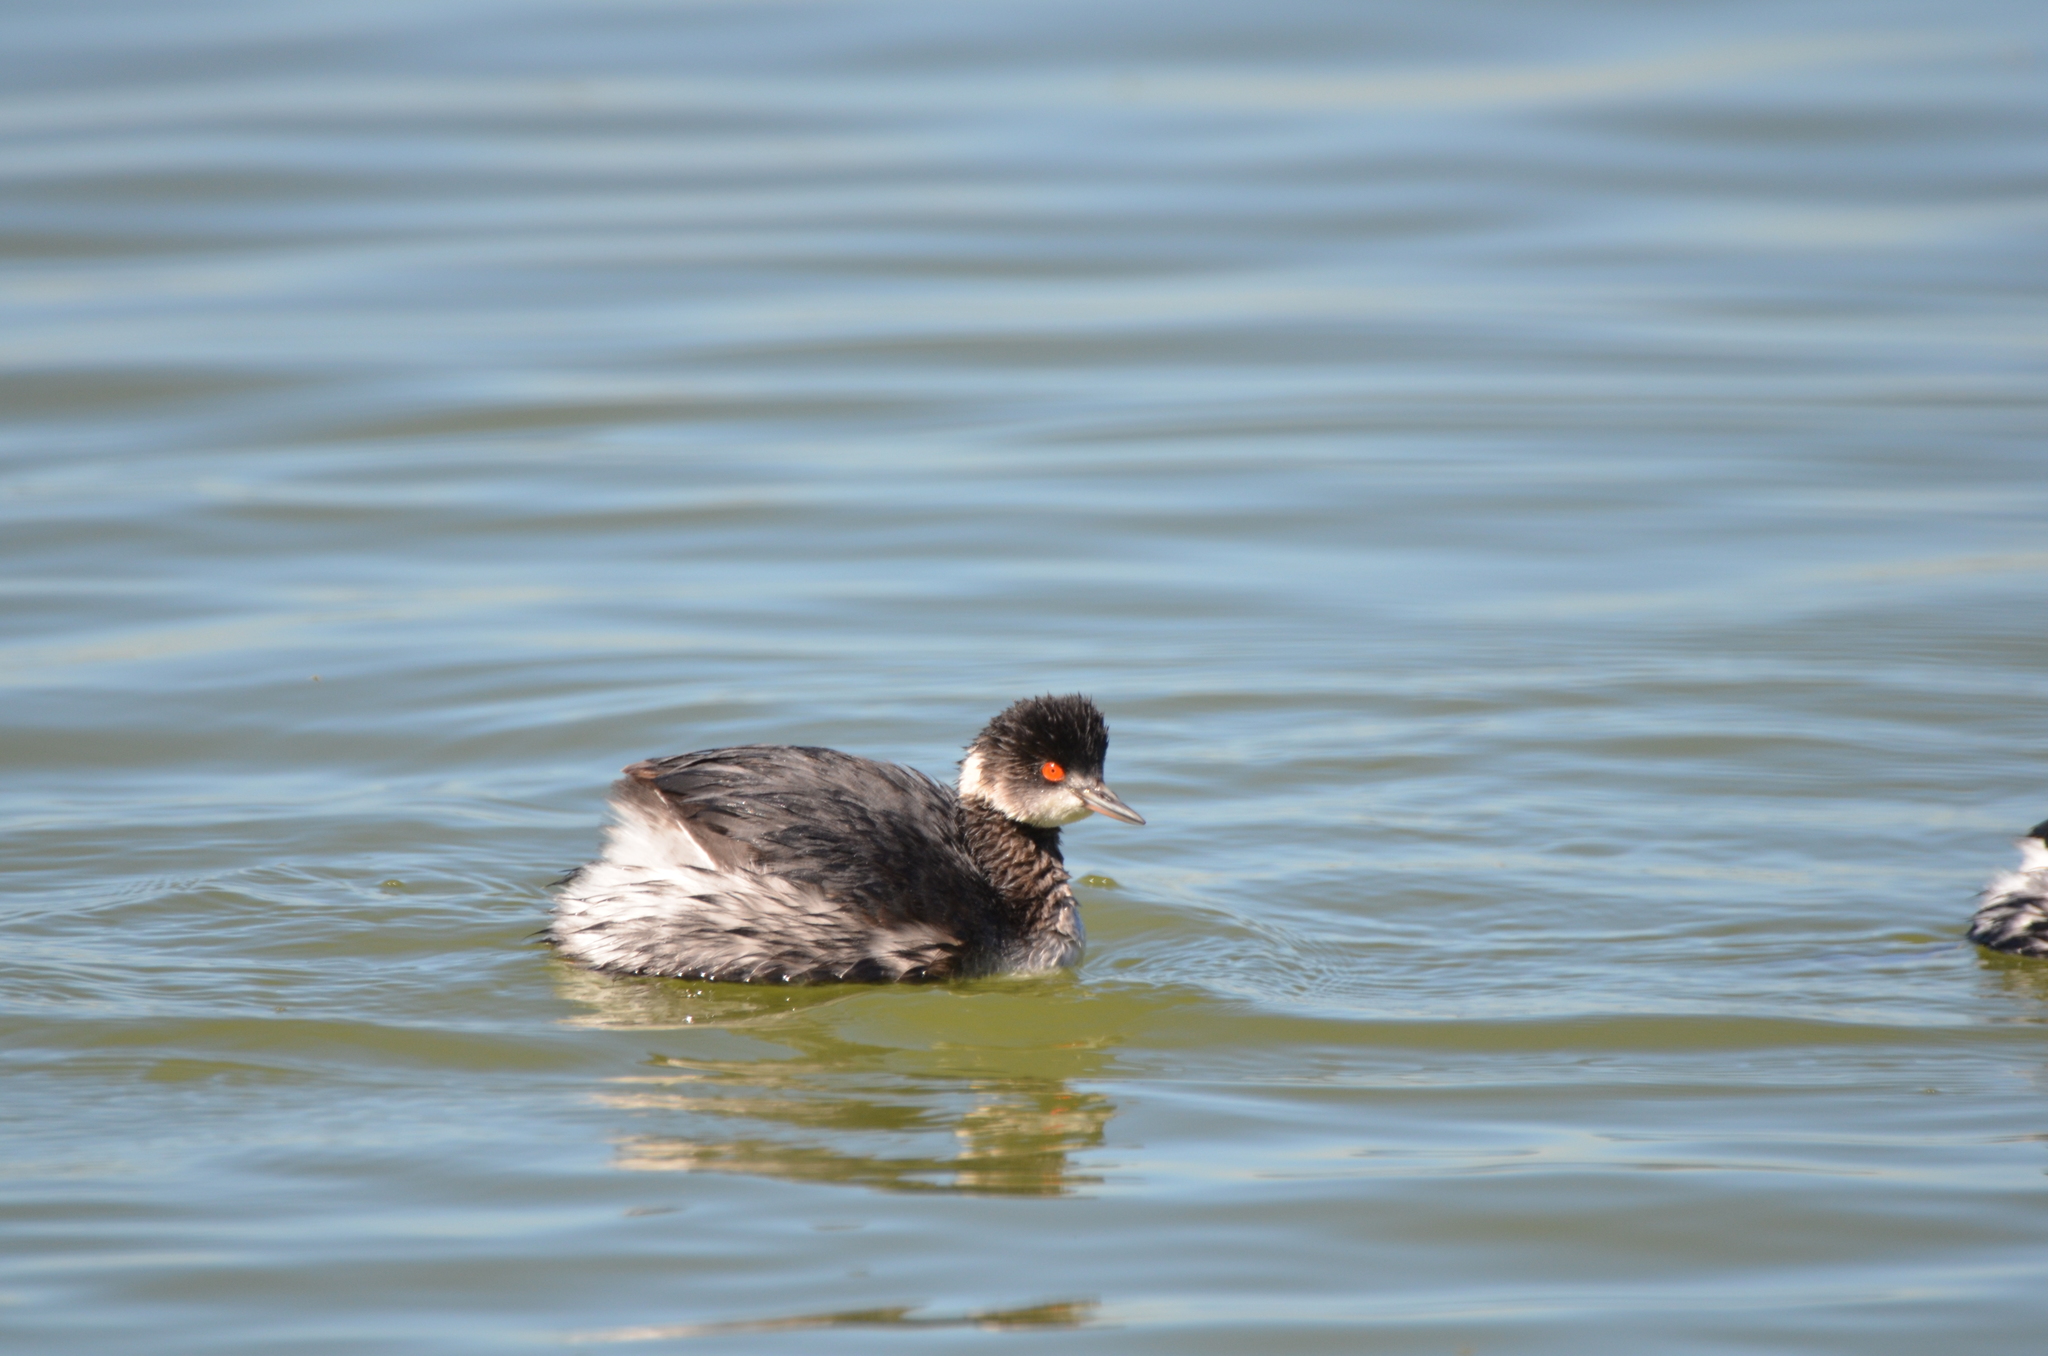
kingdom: Animalia
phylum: Chordata
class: Aves
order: Podicipediformes
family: Podicipedidae
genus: Podiceps
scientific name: Podiceps nigricollis
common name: Black-necked grebe
